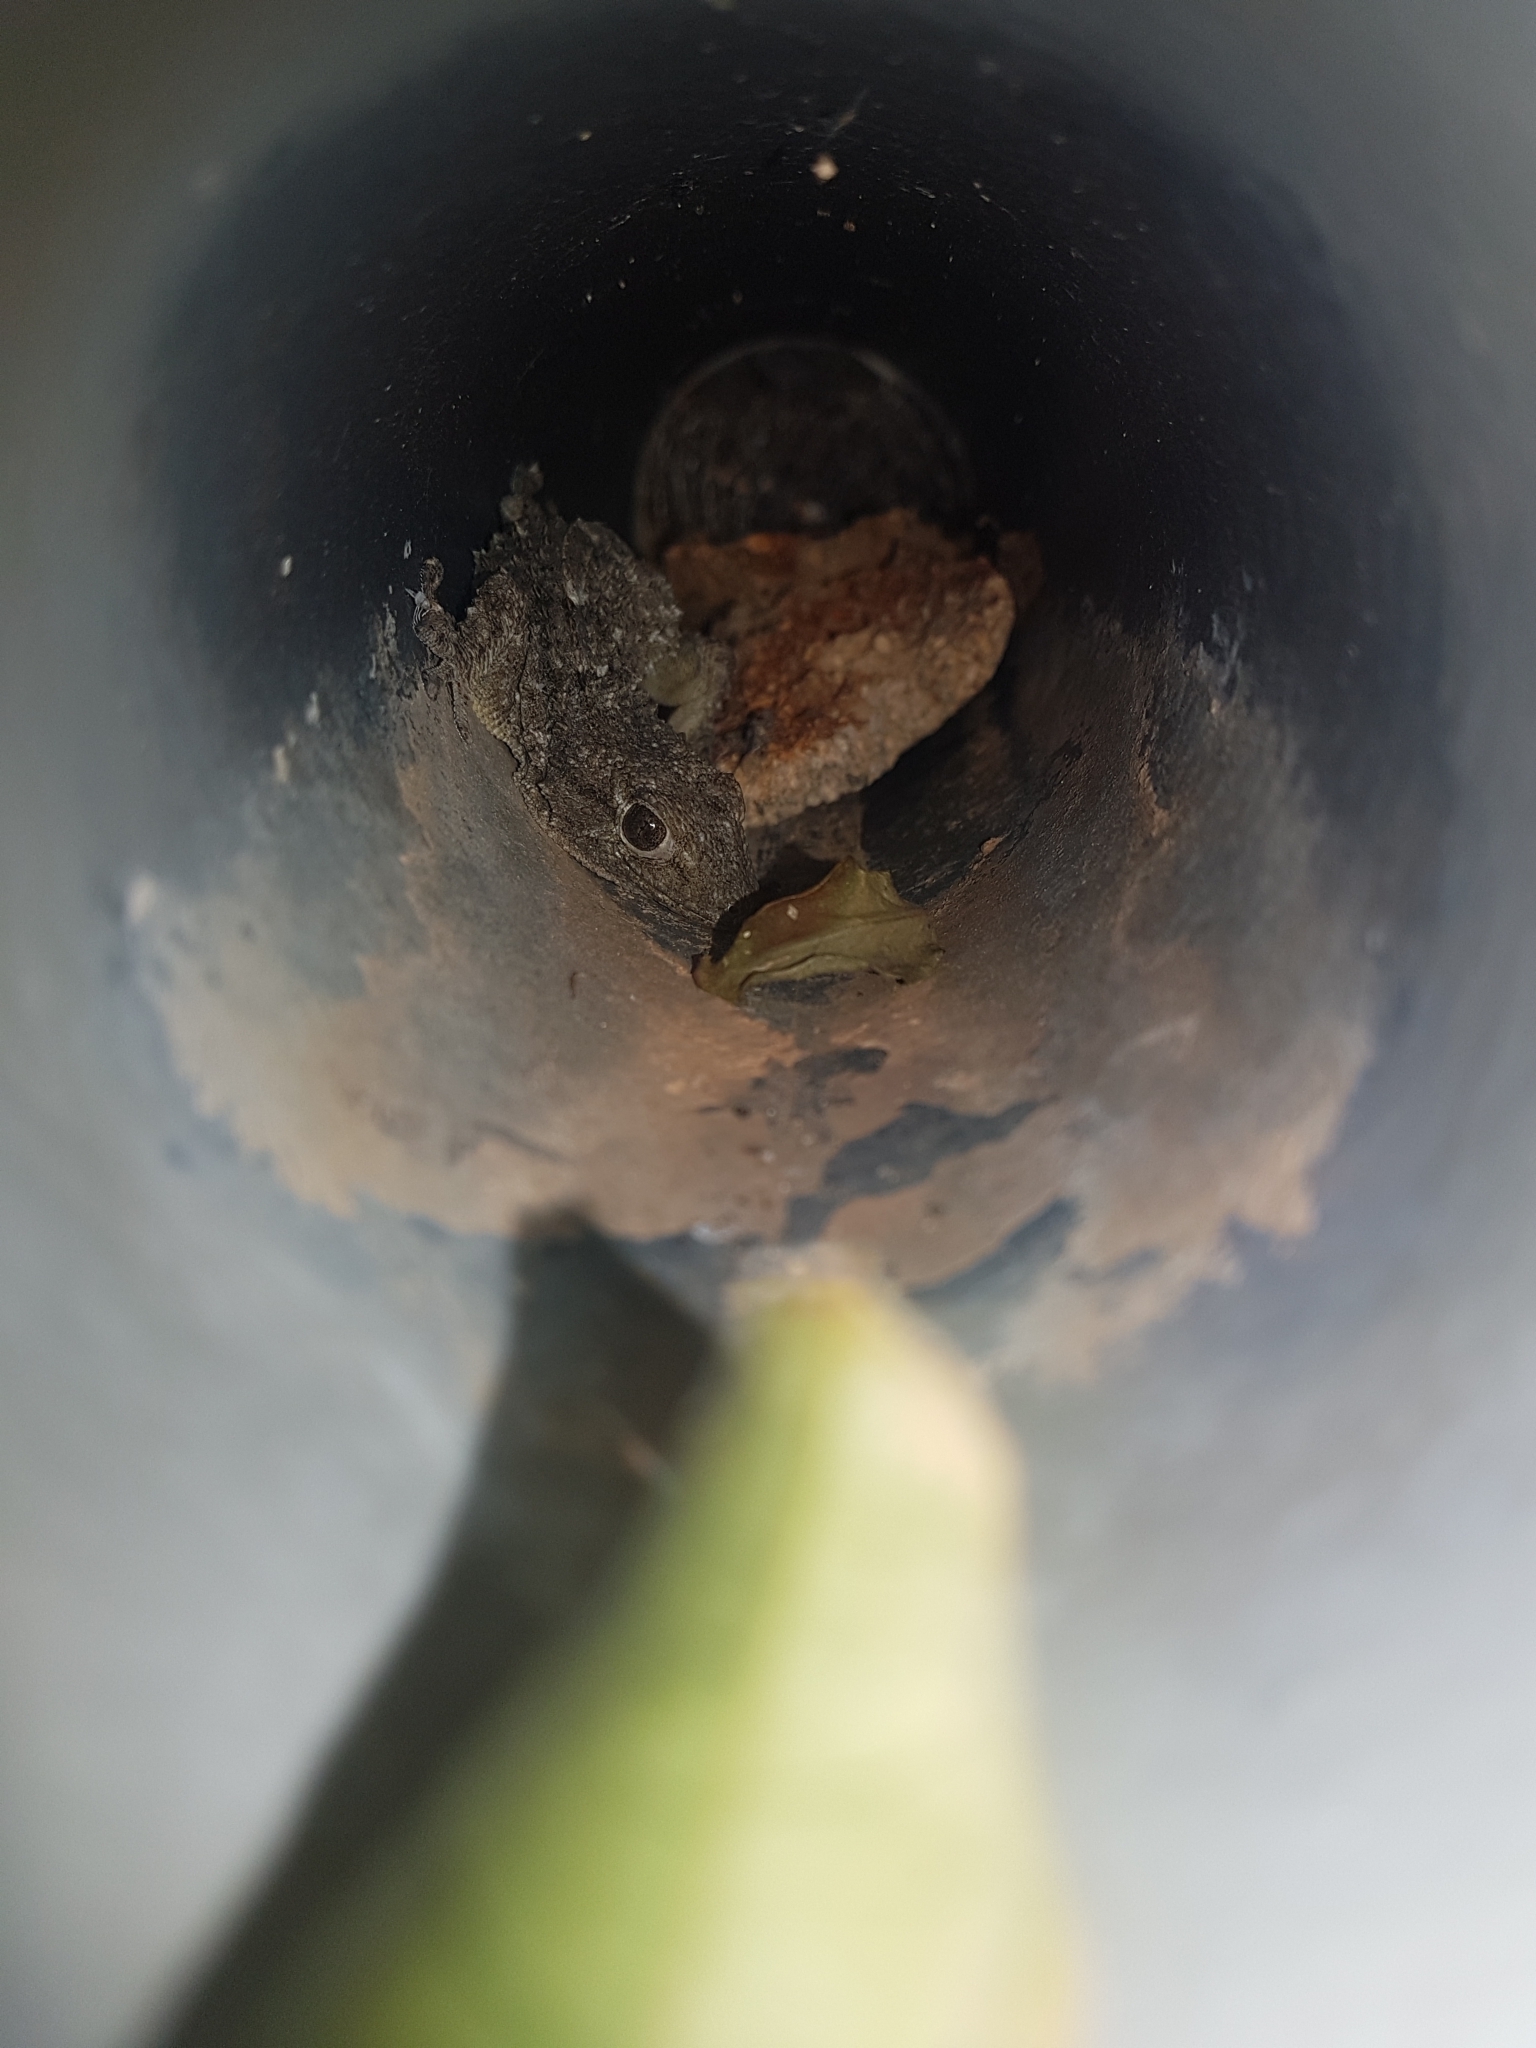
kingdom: Animalia
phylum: Chordata
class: Squamata
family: Phyllodactylidae
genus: Tarentola
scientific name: Tarentola mauritanica
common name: Moorish gecko
